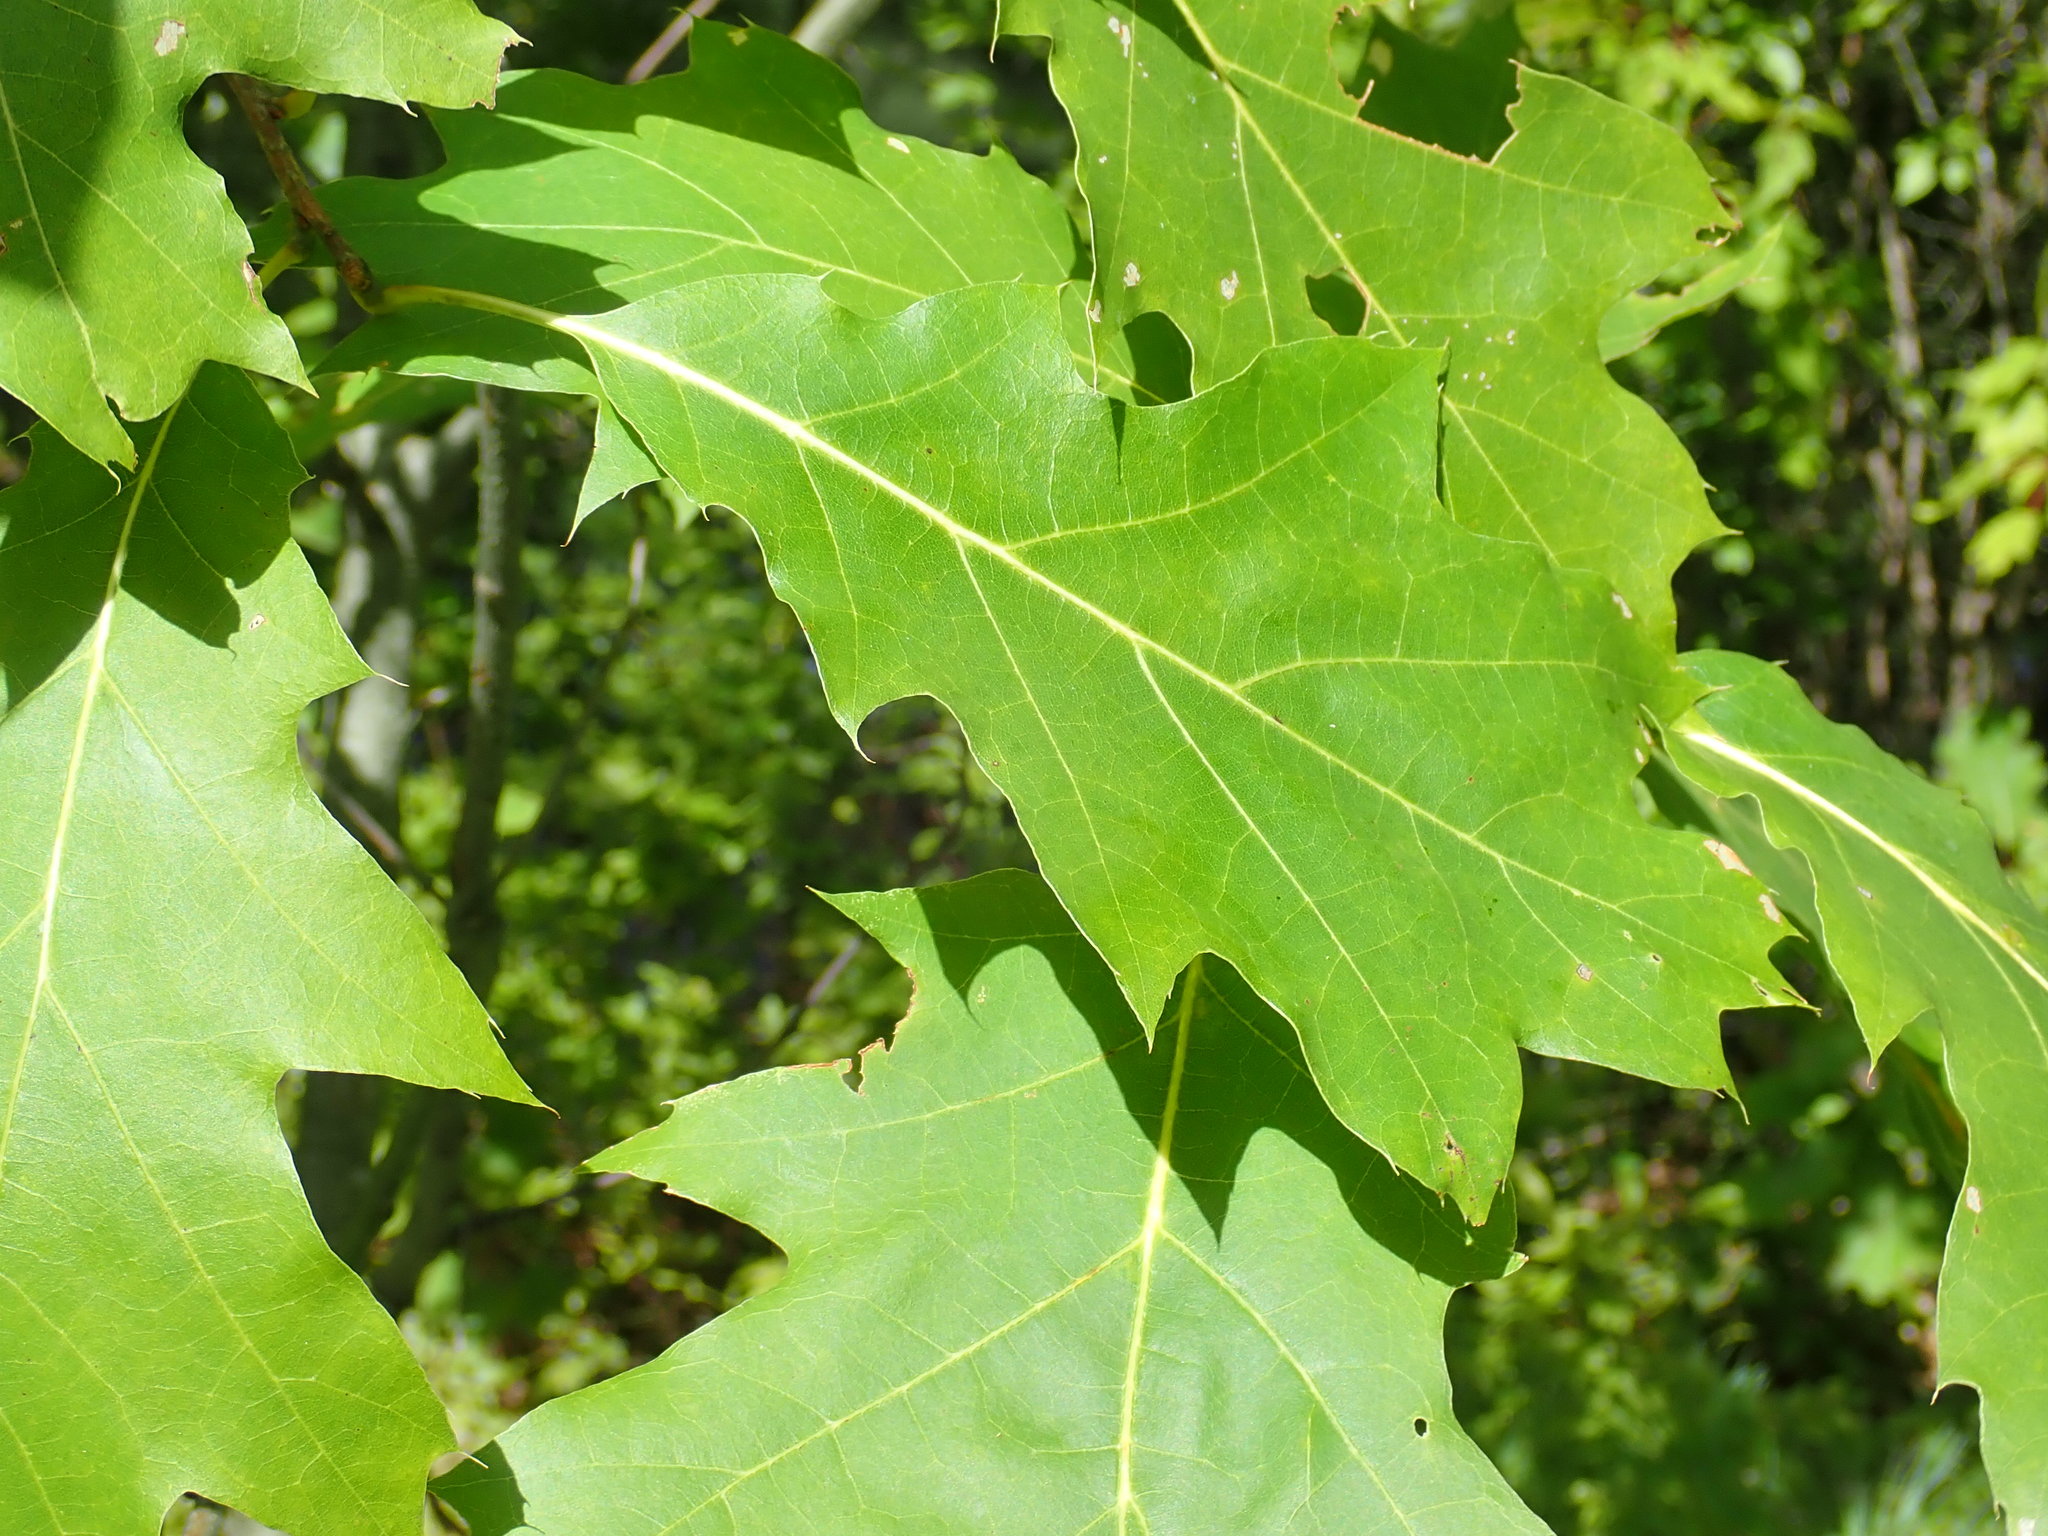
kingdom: Plantae
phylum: Tracheophyta
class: Magnoliopsida
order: Fagales
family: Fagaceae
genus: Quercus
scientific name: Quercus rubra
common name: Red oak
